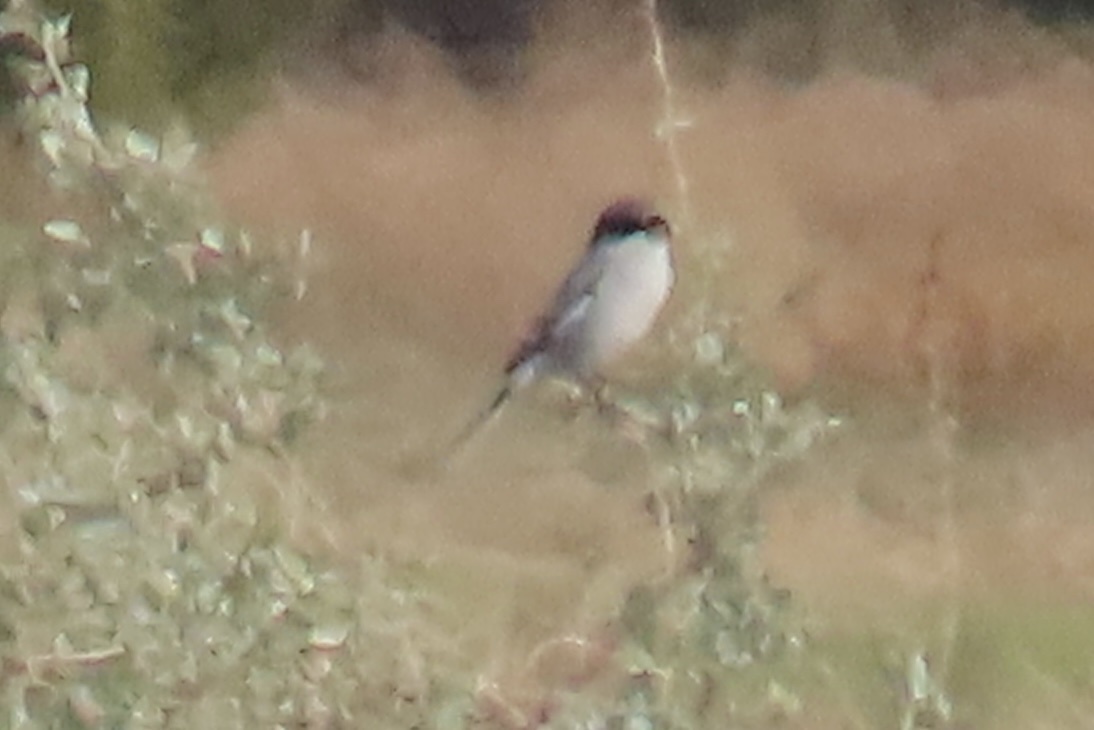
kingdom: Animalia
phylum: Chordata
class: Aves
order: Passeriformes
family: Laniidae
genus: Lanius
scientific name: Lanius ludovicianus
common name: Loggerhead shrike
